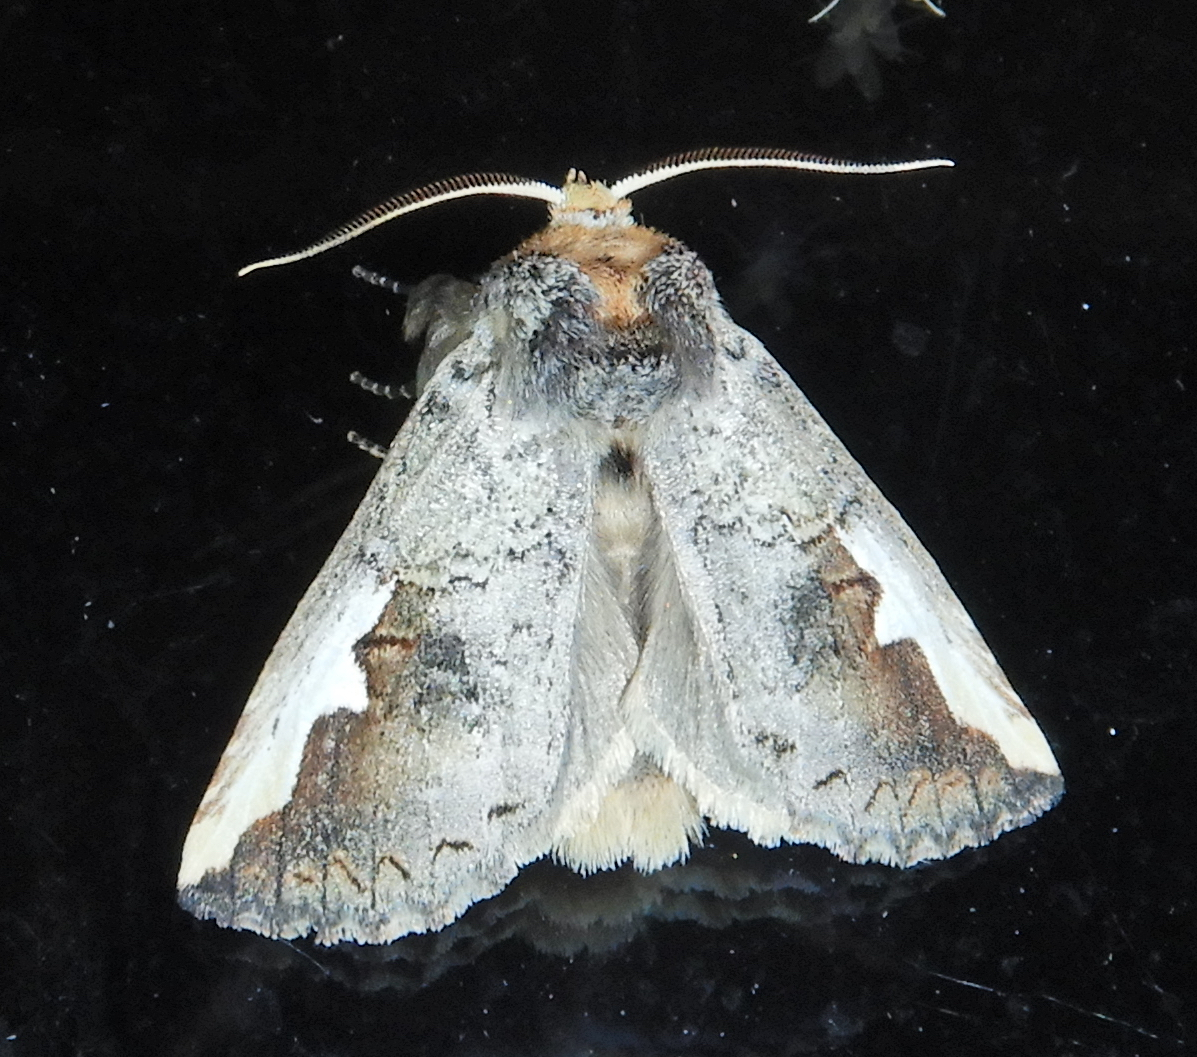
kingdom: Animalia
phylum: Arthropoda
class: Insecta
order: Lepidoptera
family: Notodontidae
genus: Symmerista
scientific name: Symmerista leucitys
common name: Orange-humped mapleworm
